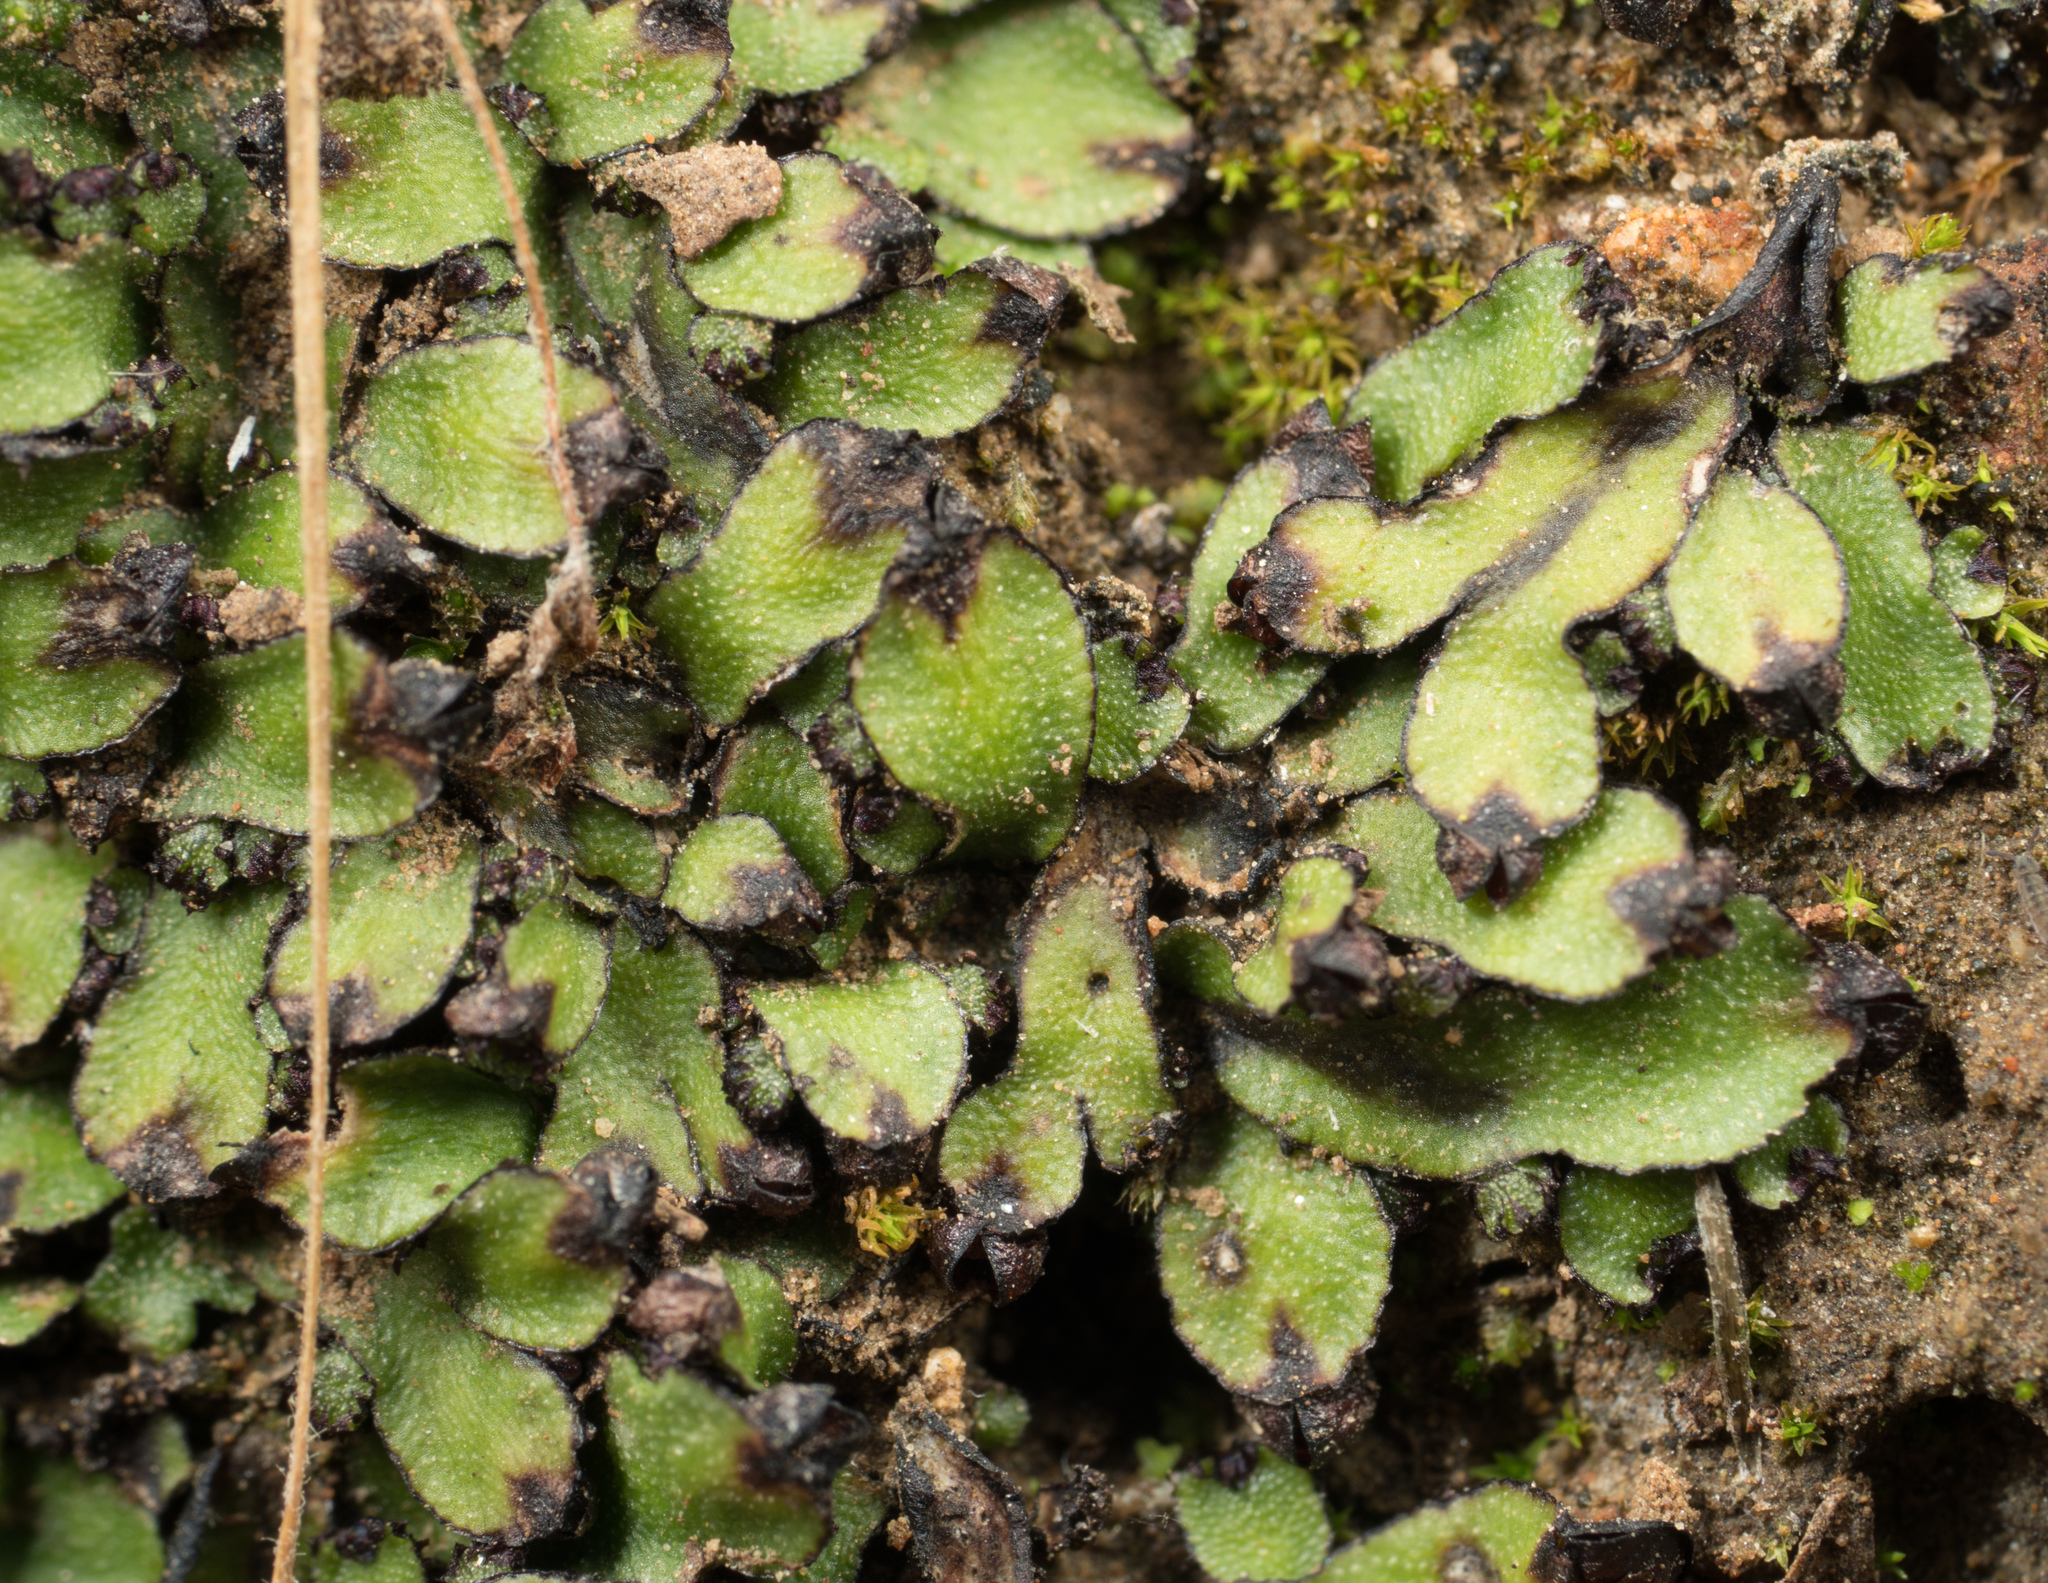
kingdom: Plantae
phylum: Marchantiophyta
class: Marchantiopsida
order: Marchantiales
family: Targioniaceae
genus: Targionia
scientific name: Targionia hypophylla
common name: Orobus-seed liverwort
